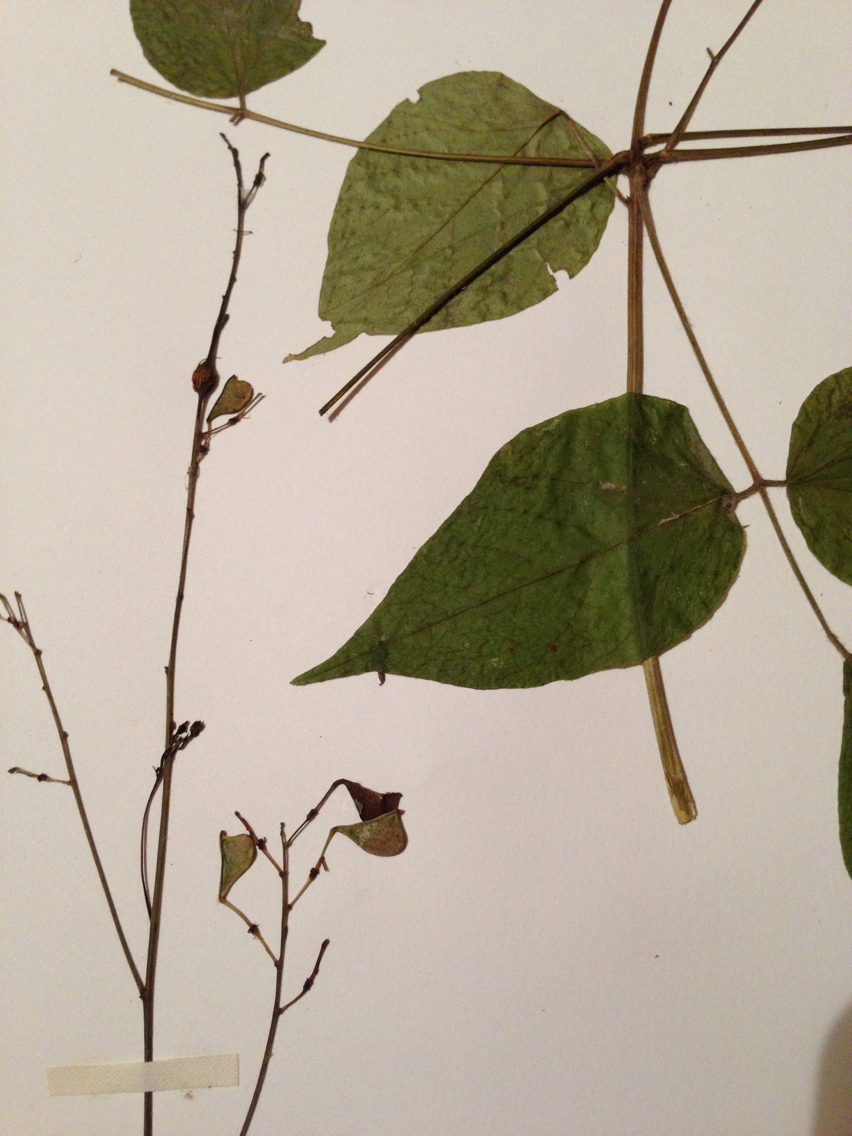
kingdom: Plantae
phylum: Tracheophyta
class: Magnoliopsida
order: Fabales
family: Fabaceae
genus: Hylodesmum
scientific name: Hylodesmum glutinosum
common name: Clustered-leaved tick-trefoil
